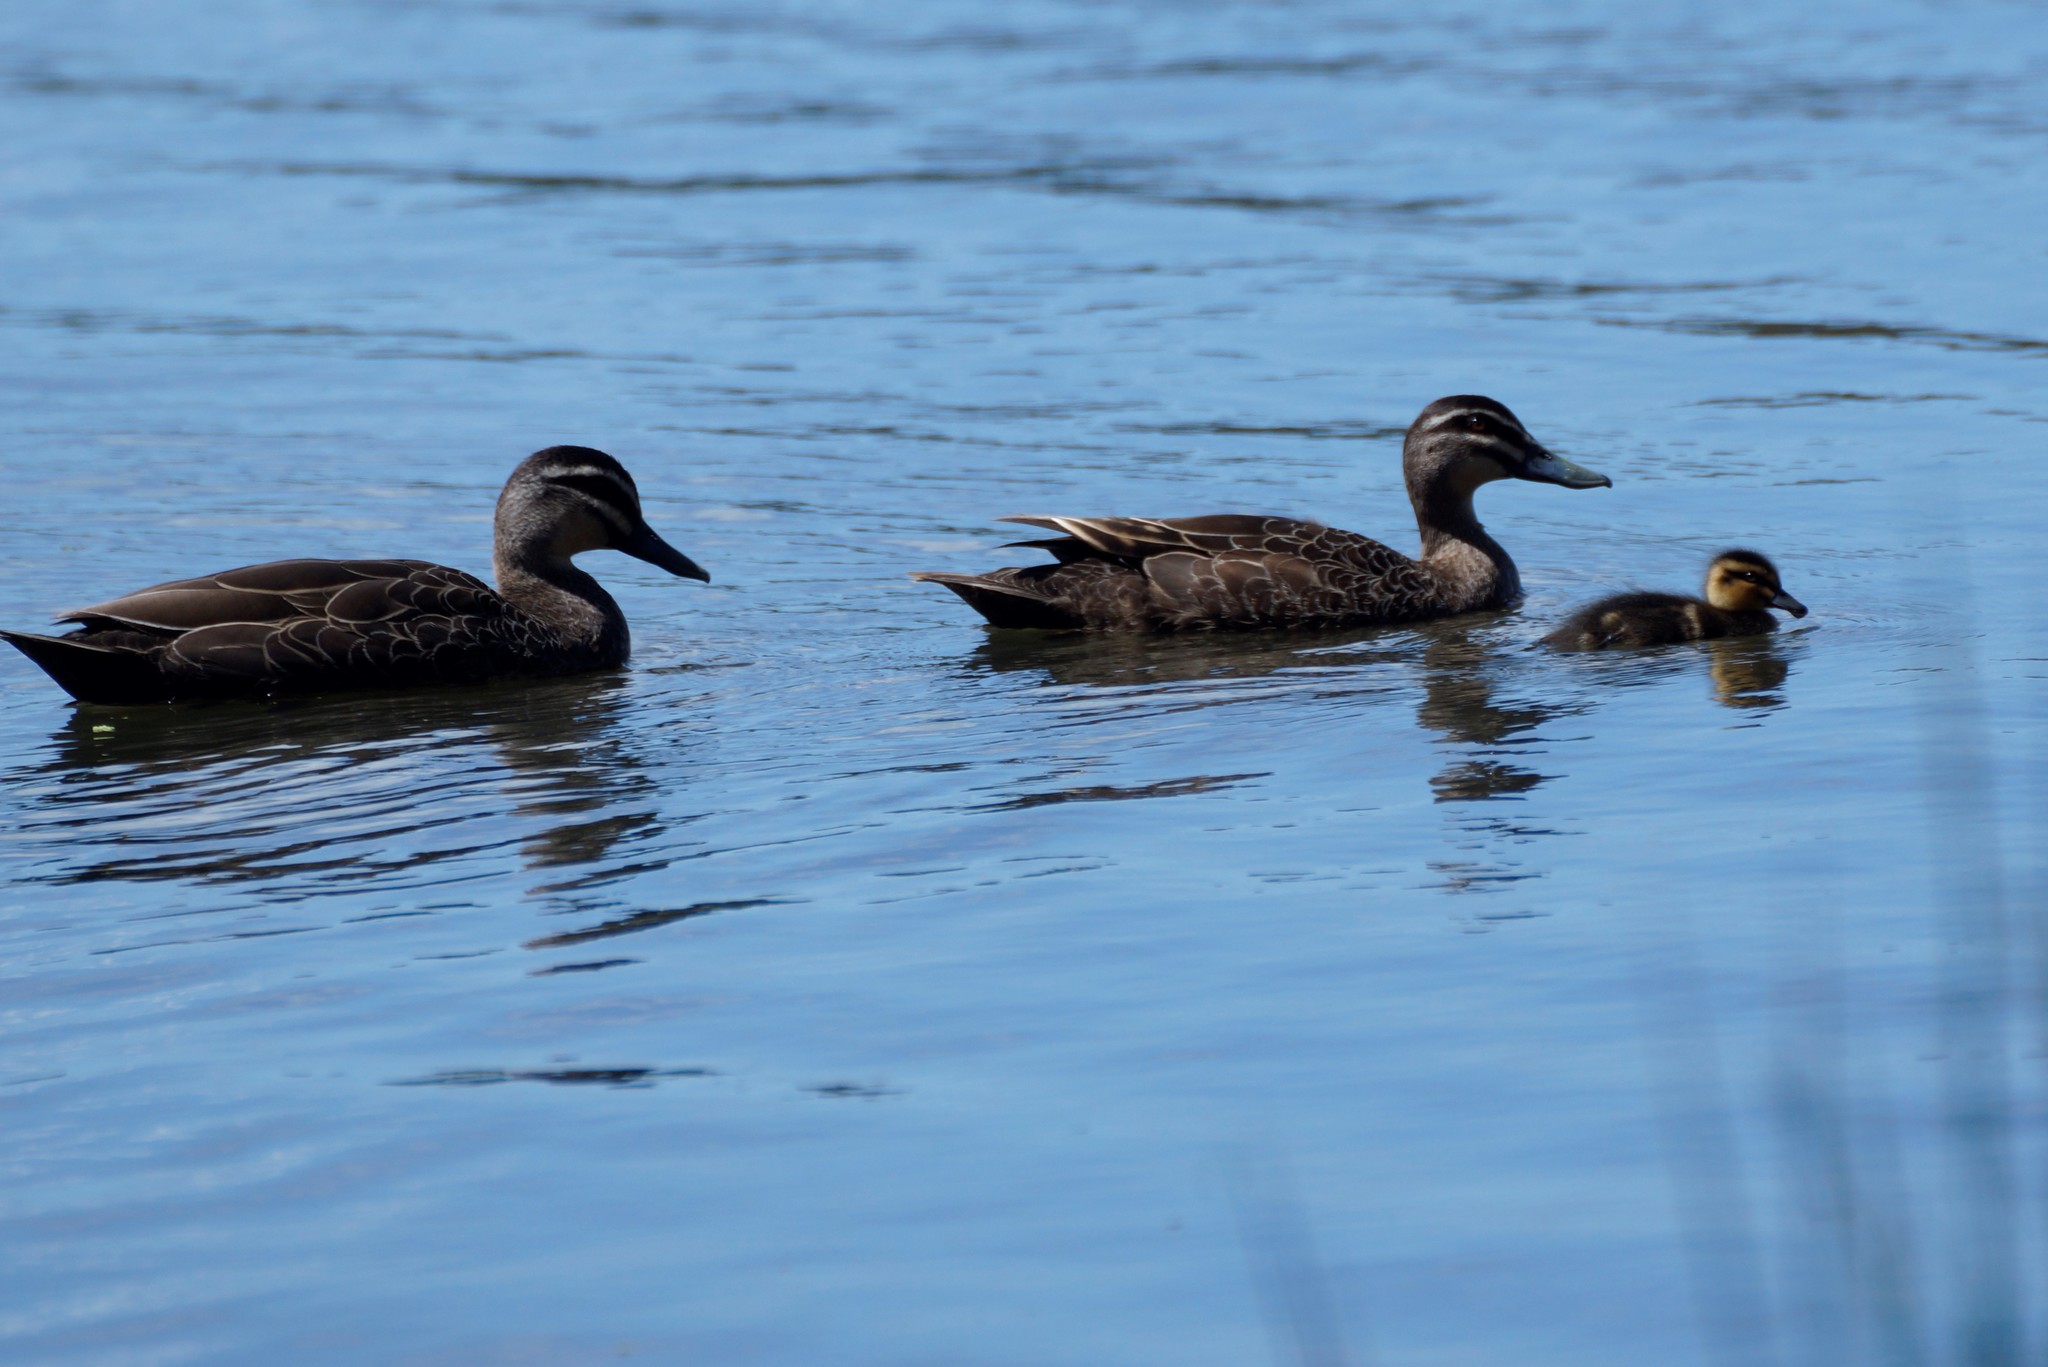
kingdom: Animalia
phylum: Chordata
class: Aves
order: Anseriformes
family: Anatidae
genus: Anas
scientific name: Anas
